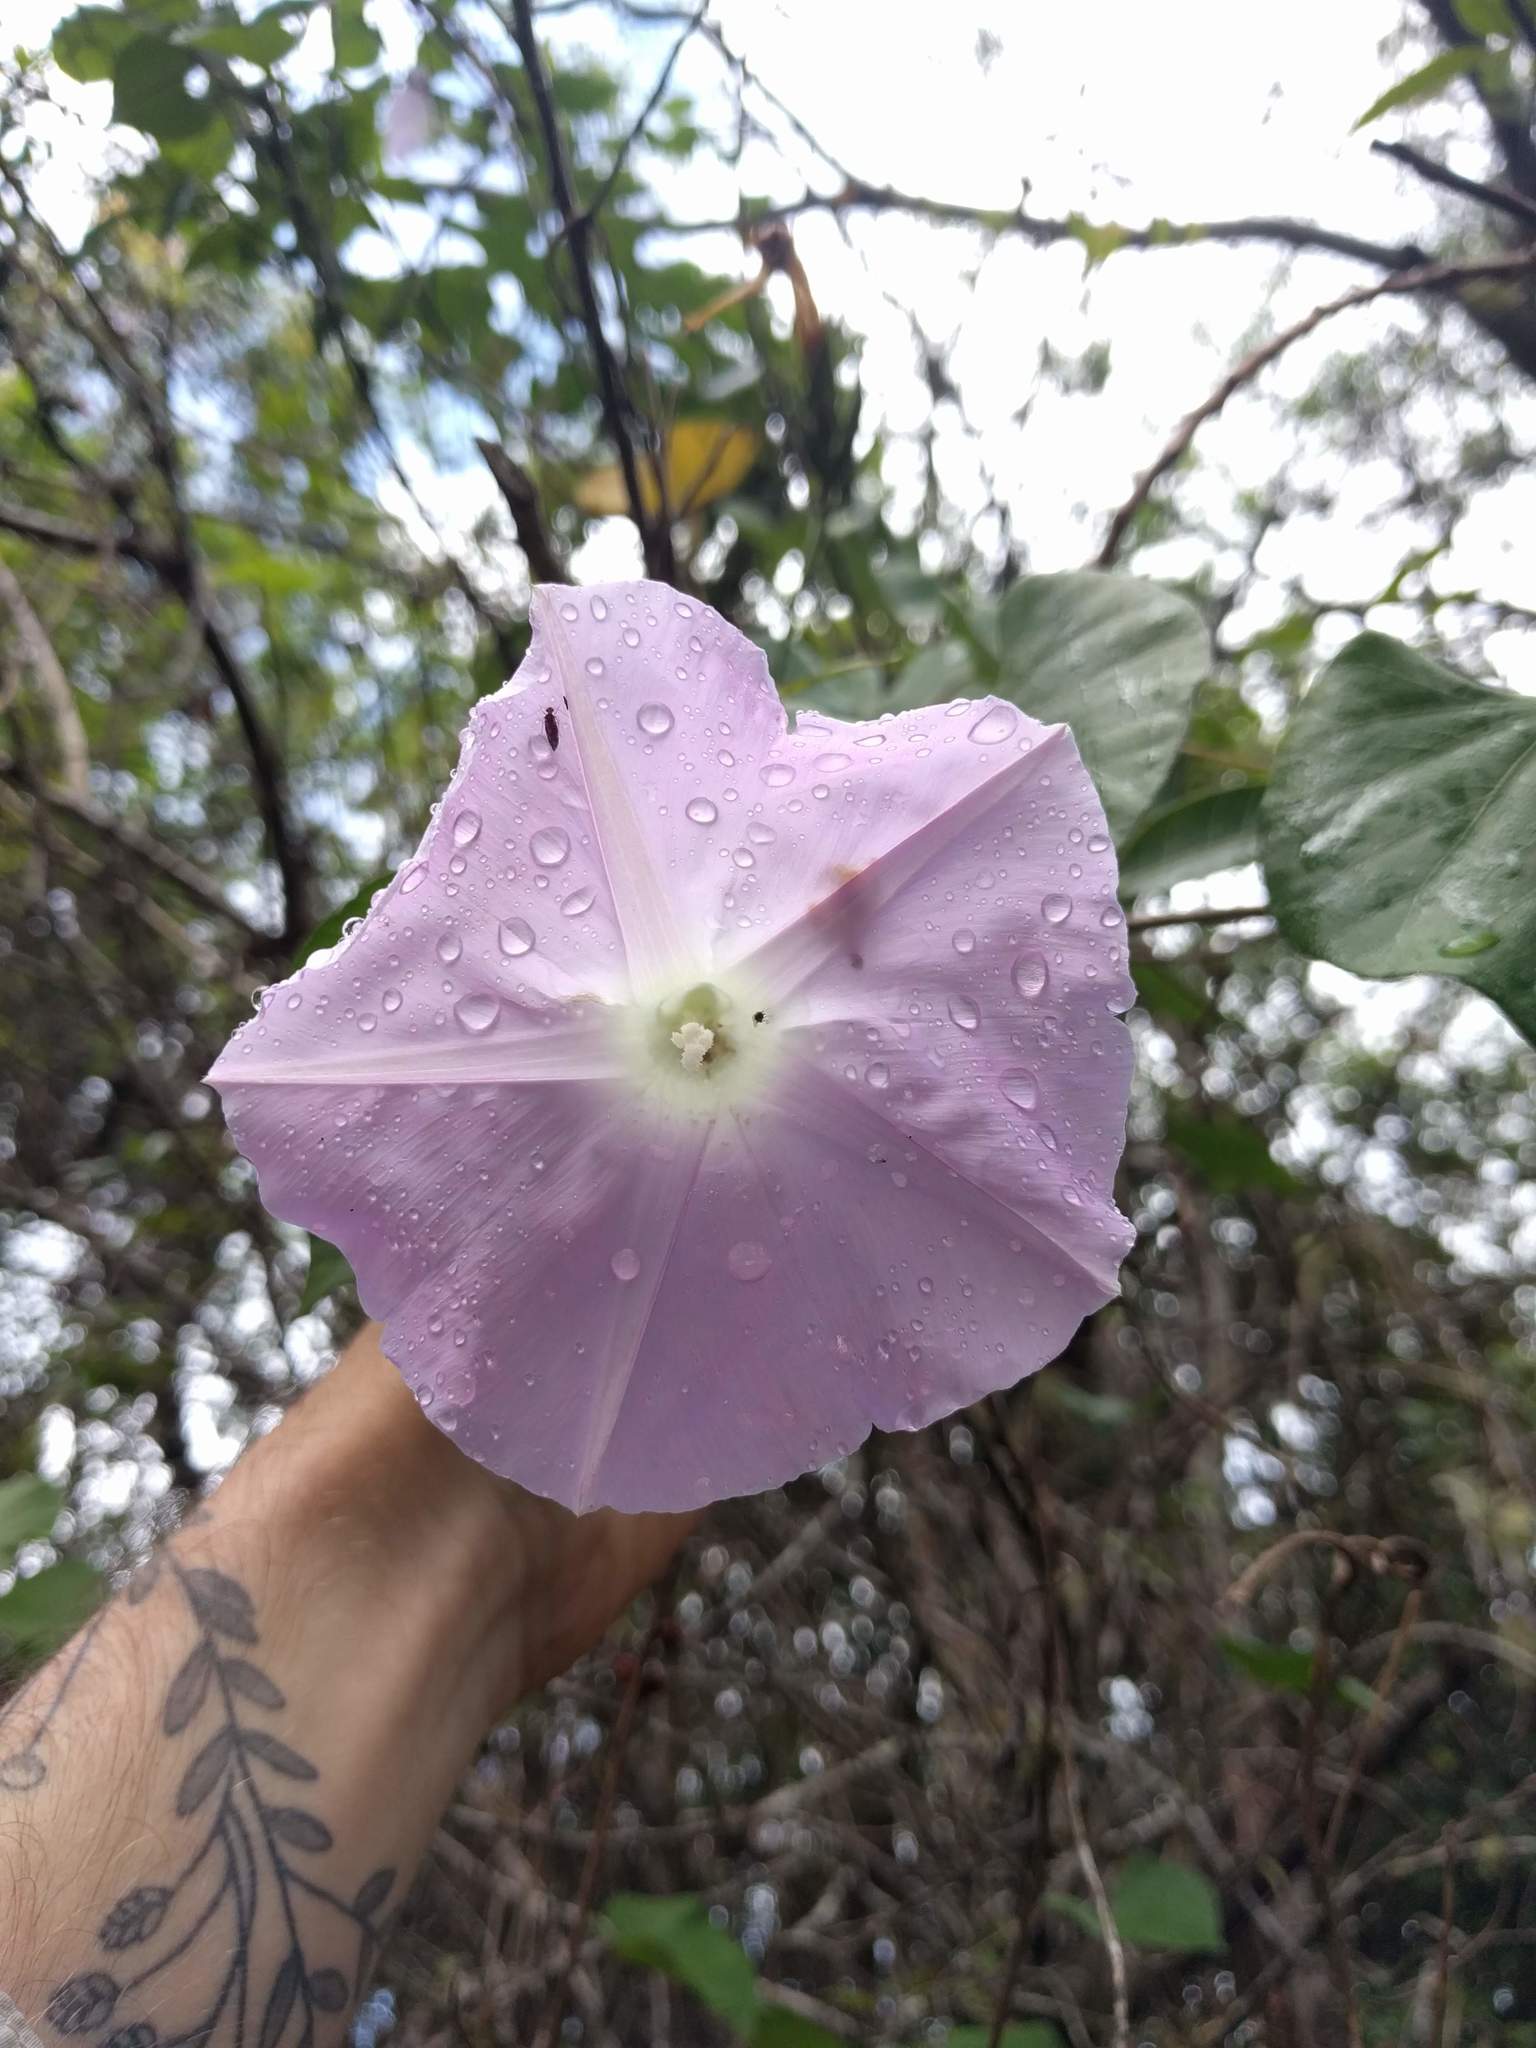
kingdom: Plantae
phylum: Tracheophyta
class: Magnoliopsida
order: Solanales
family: Convolvulaceae
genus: Ipomoea
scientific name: Ipomoea indica
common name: Blue dawnflower
